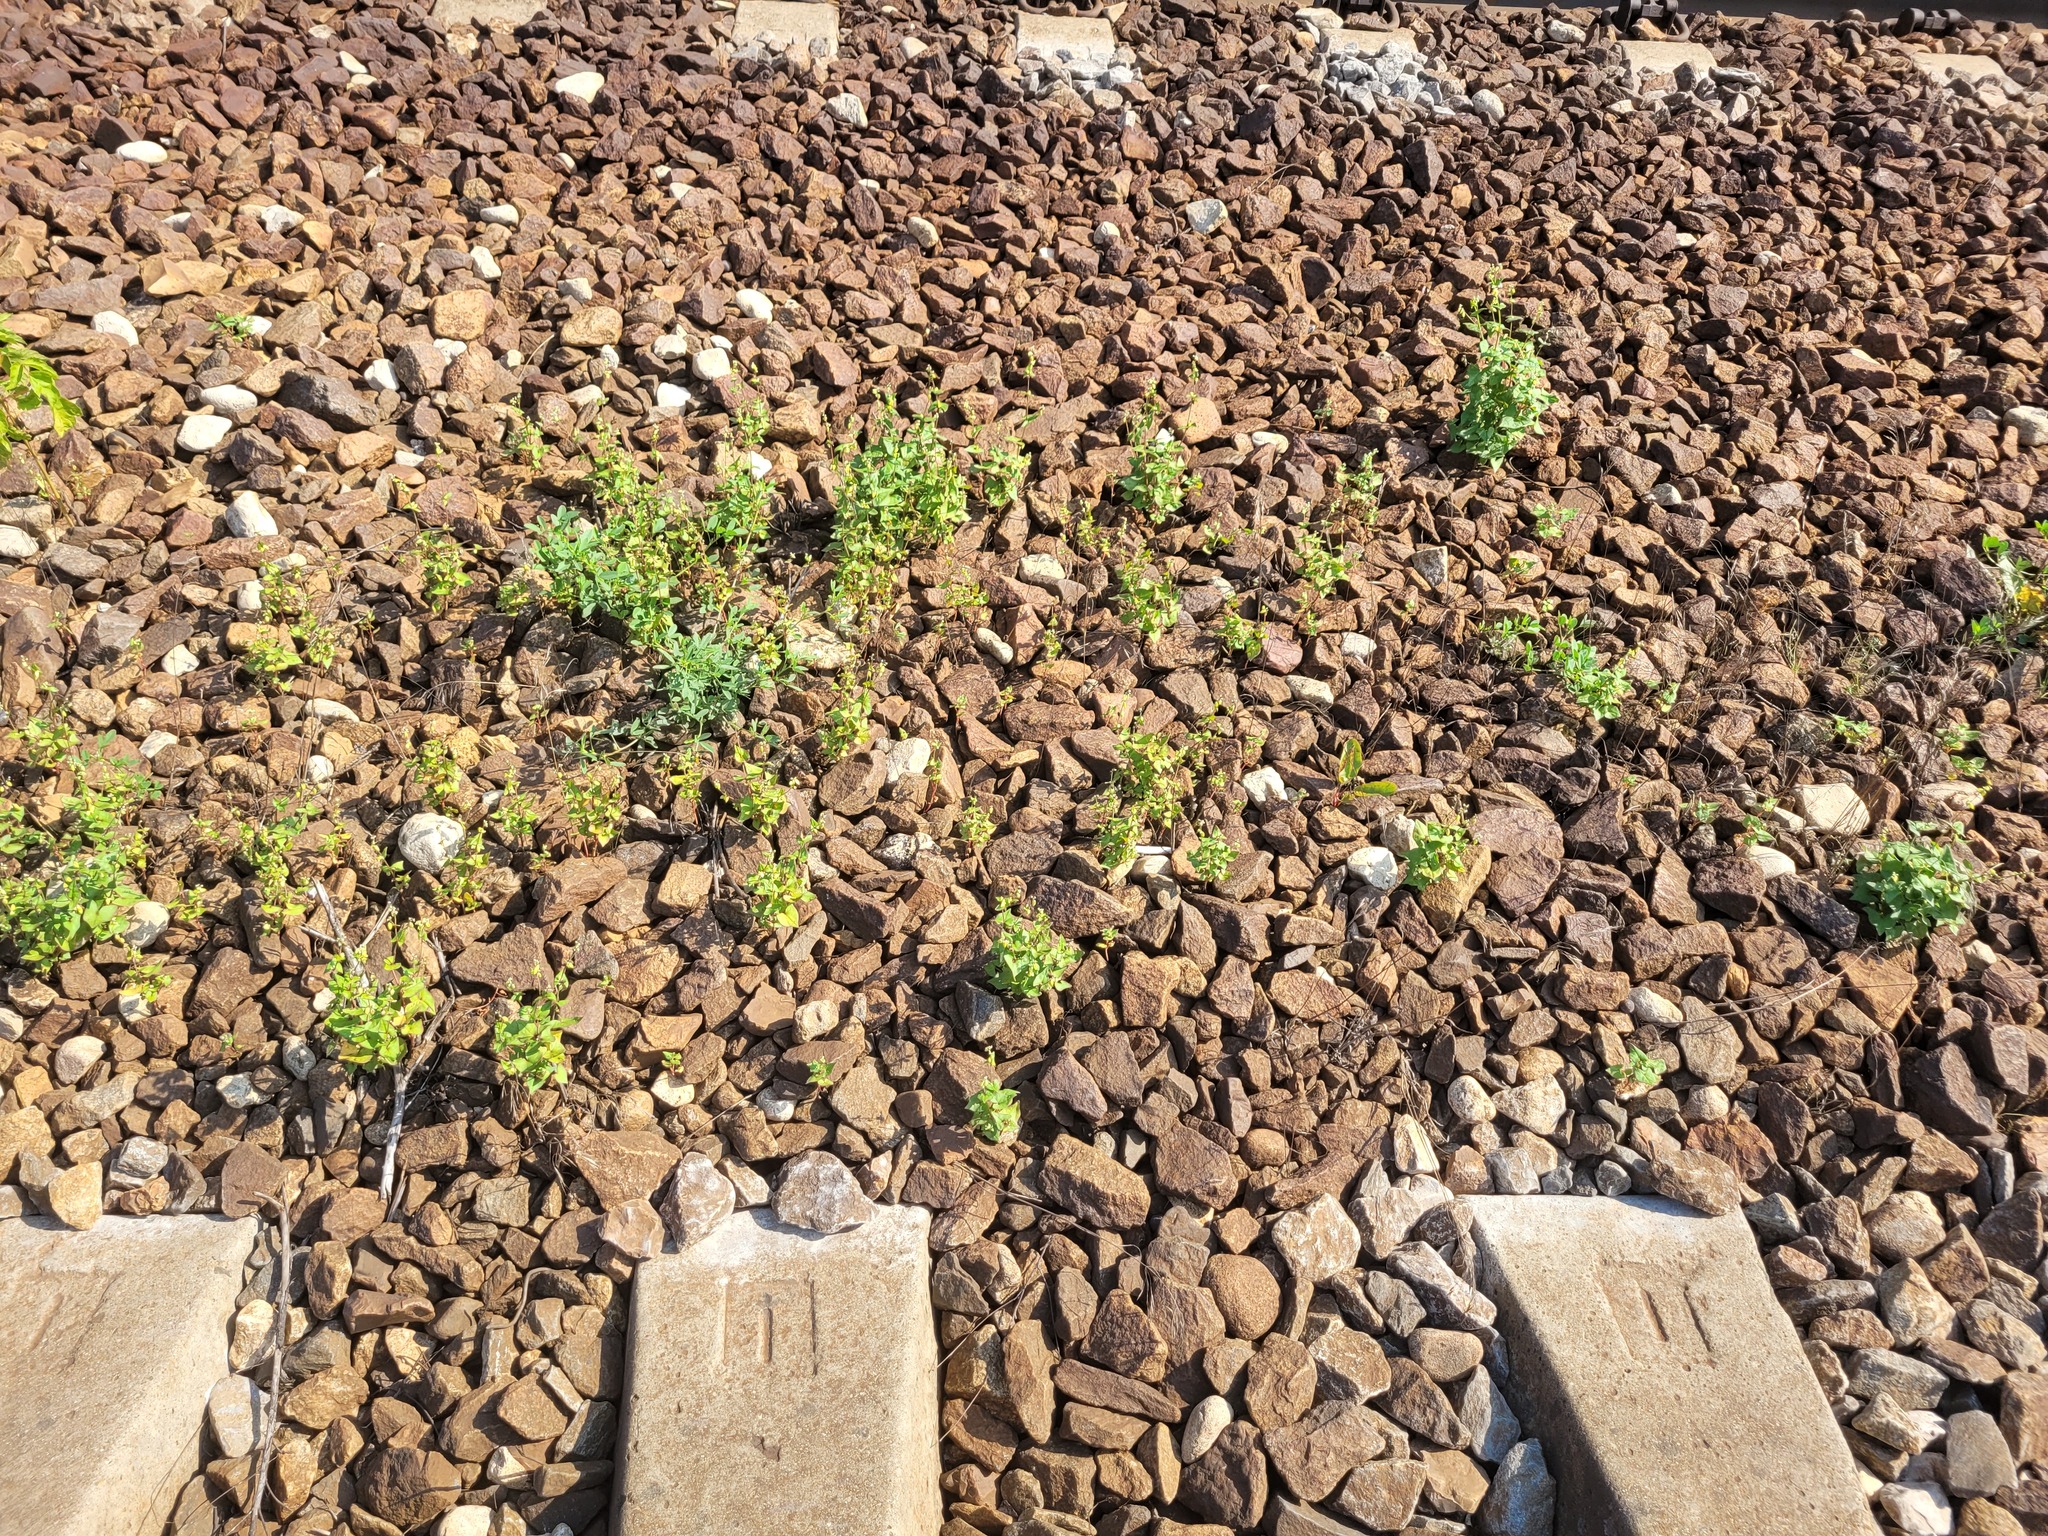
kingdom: Plantae
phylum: Tracheophyta
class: Magnoliopsida
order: Caryophyllales
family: Polygonaceae
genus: Fagopyrum
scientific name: Fagopyrum tataricum
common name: Green buckwheat
